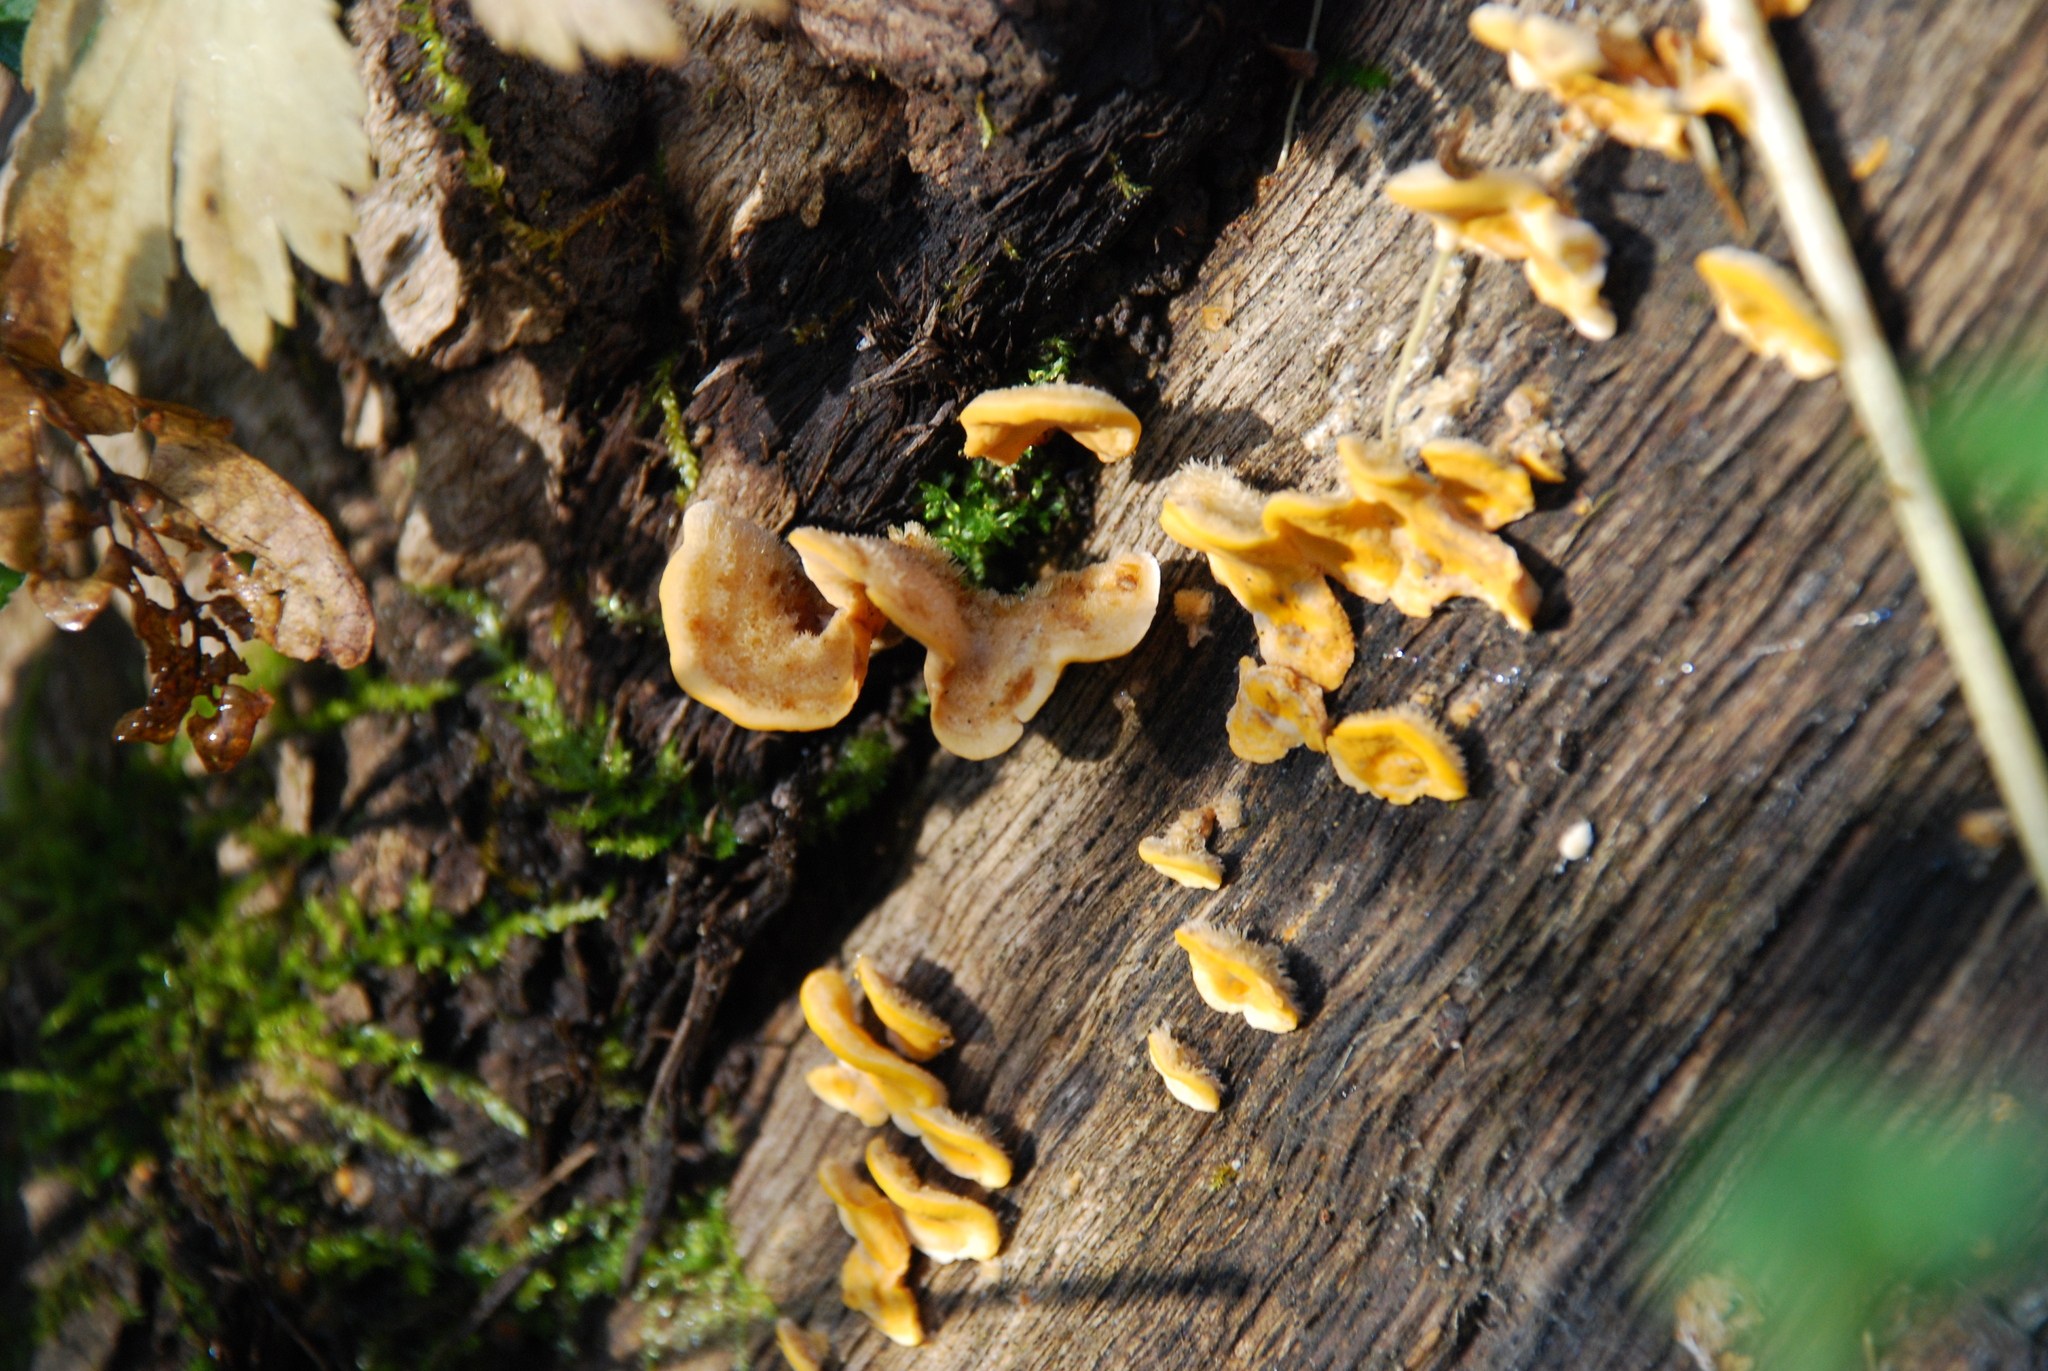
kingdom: Fungi
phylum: Basidiomycota
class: Agaricomycetes
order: Russulales
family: Stereaceae
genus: Stereum
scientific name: Stereum hirsutum
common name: Hairy curtain crust
